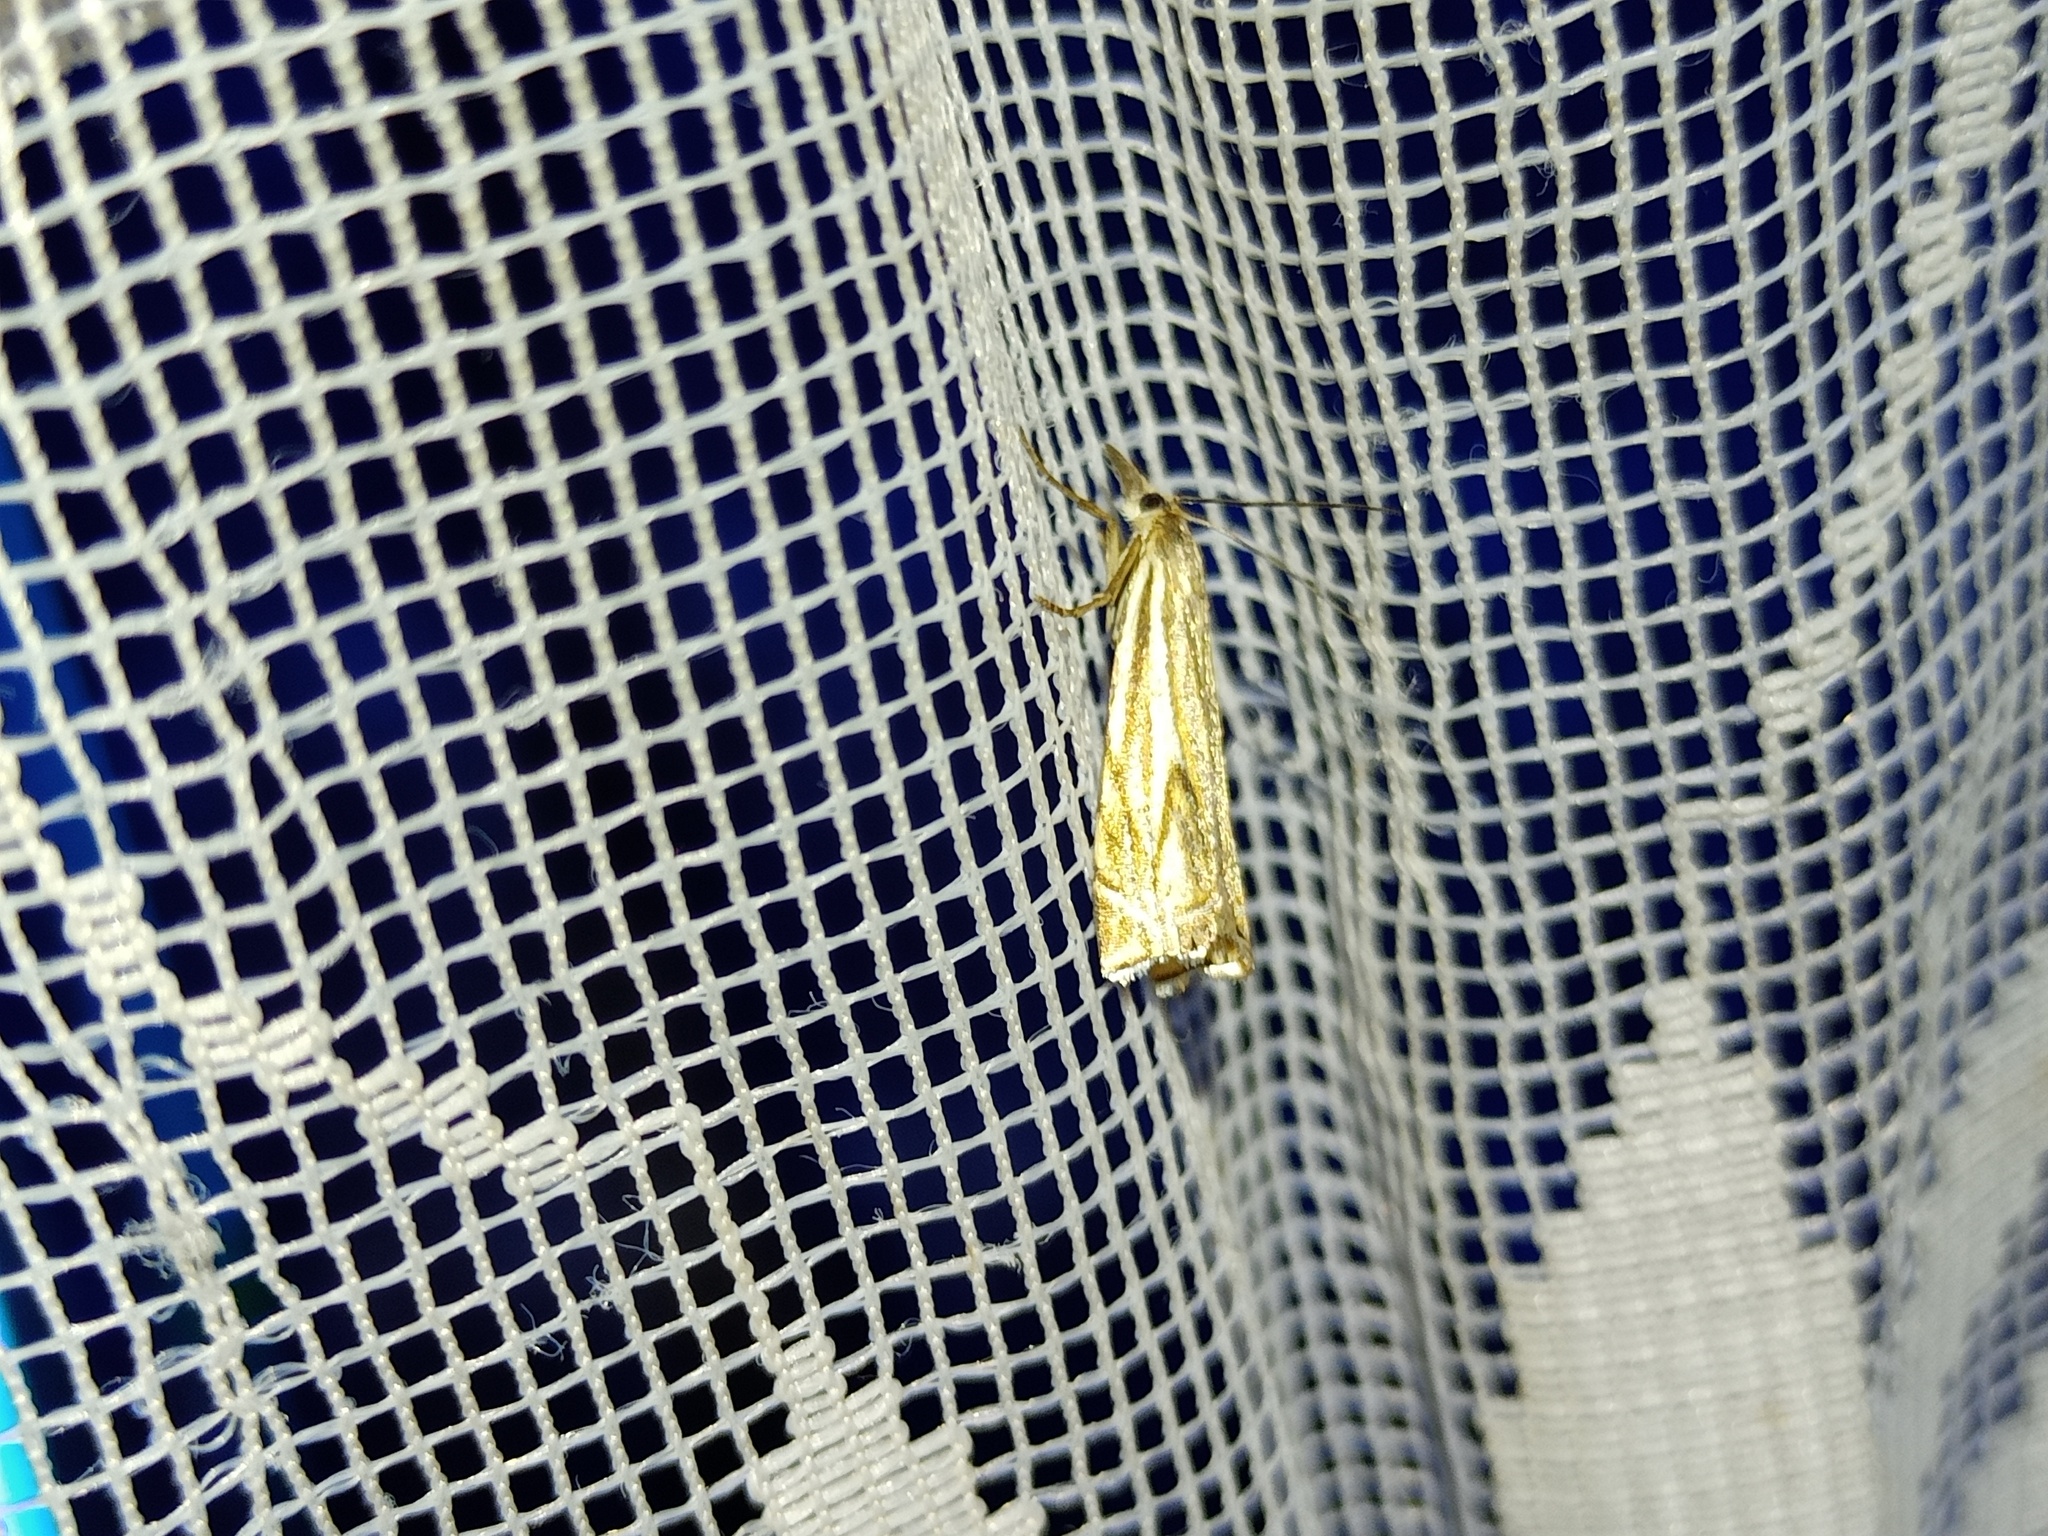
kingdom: Animalia
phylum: Arthropoda
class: Insecta
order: Lepidoptera
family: Crambidae
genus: Crambus
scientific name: Crambus nemorella
